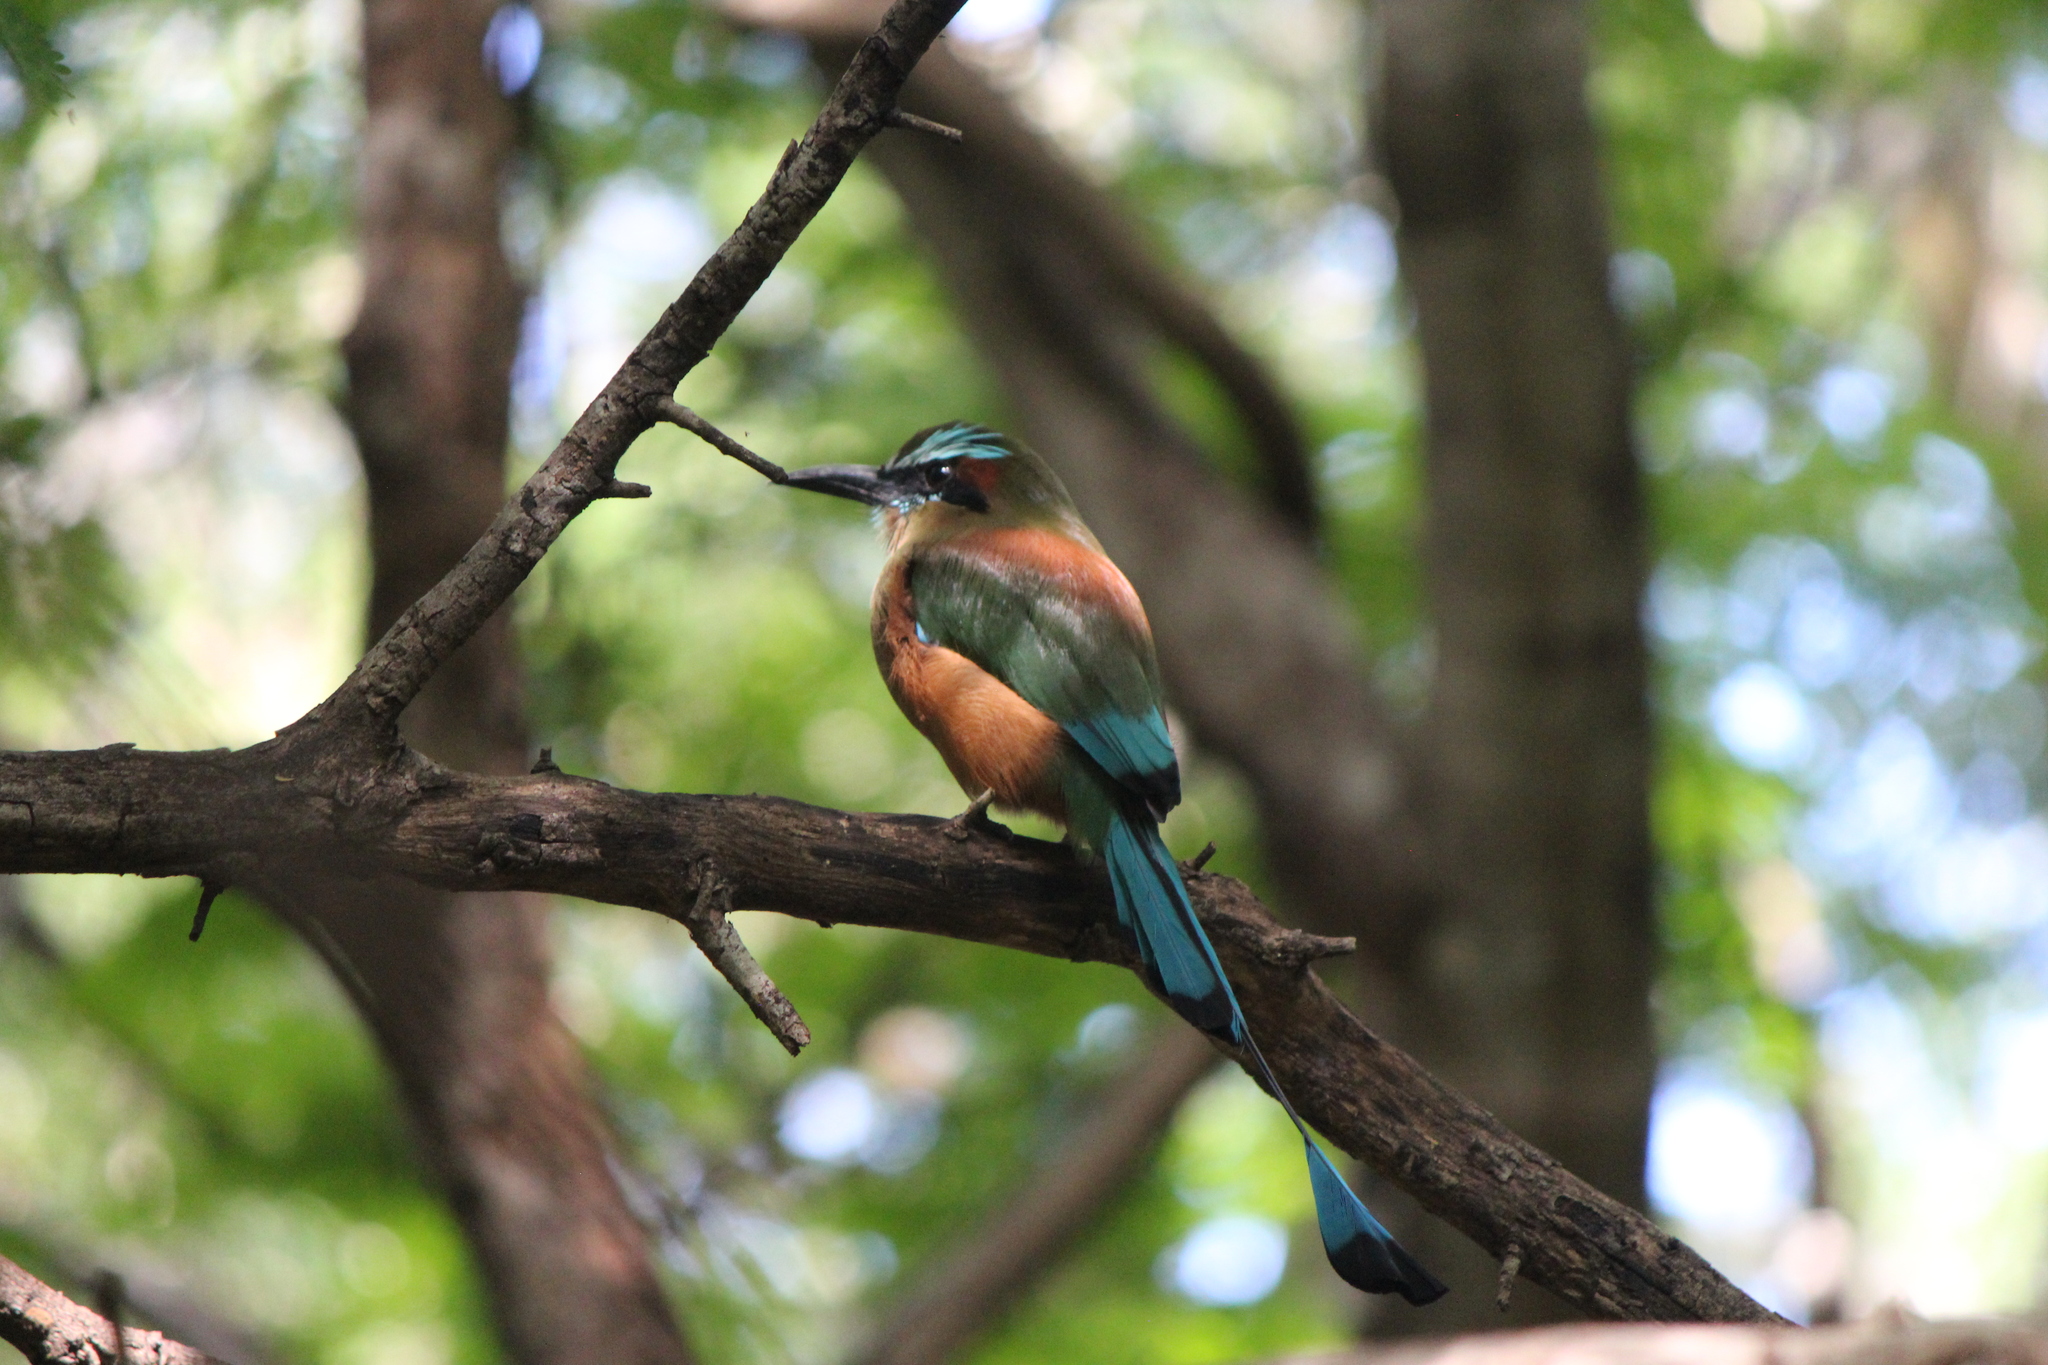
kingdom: Animalia
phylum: Chordata
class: Aves
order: Coraciiformes
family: Momotidae
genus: Eumomota
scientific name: Eumomota superciliosa
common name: Turquoise-browed motmot
